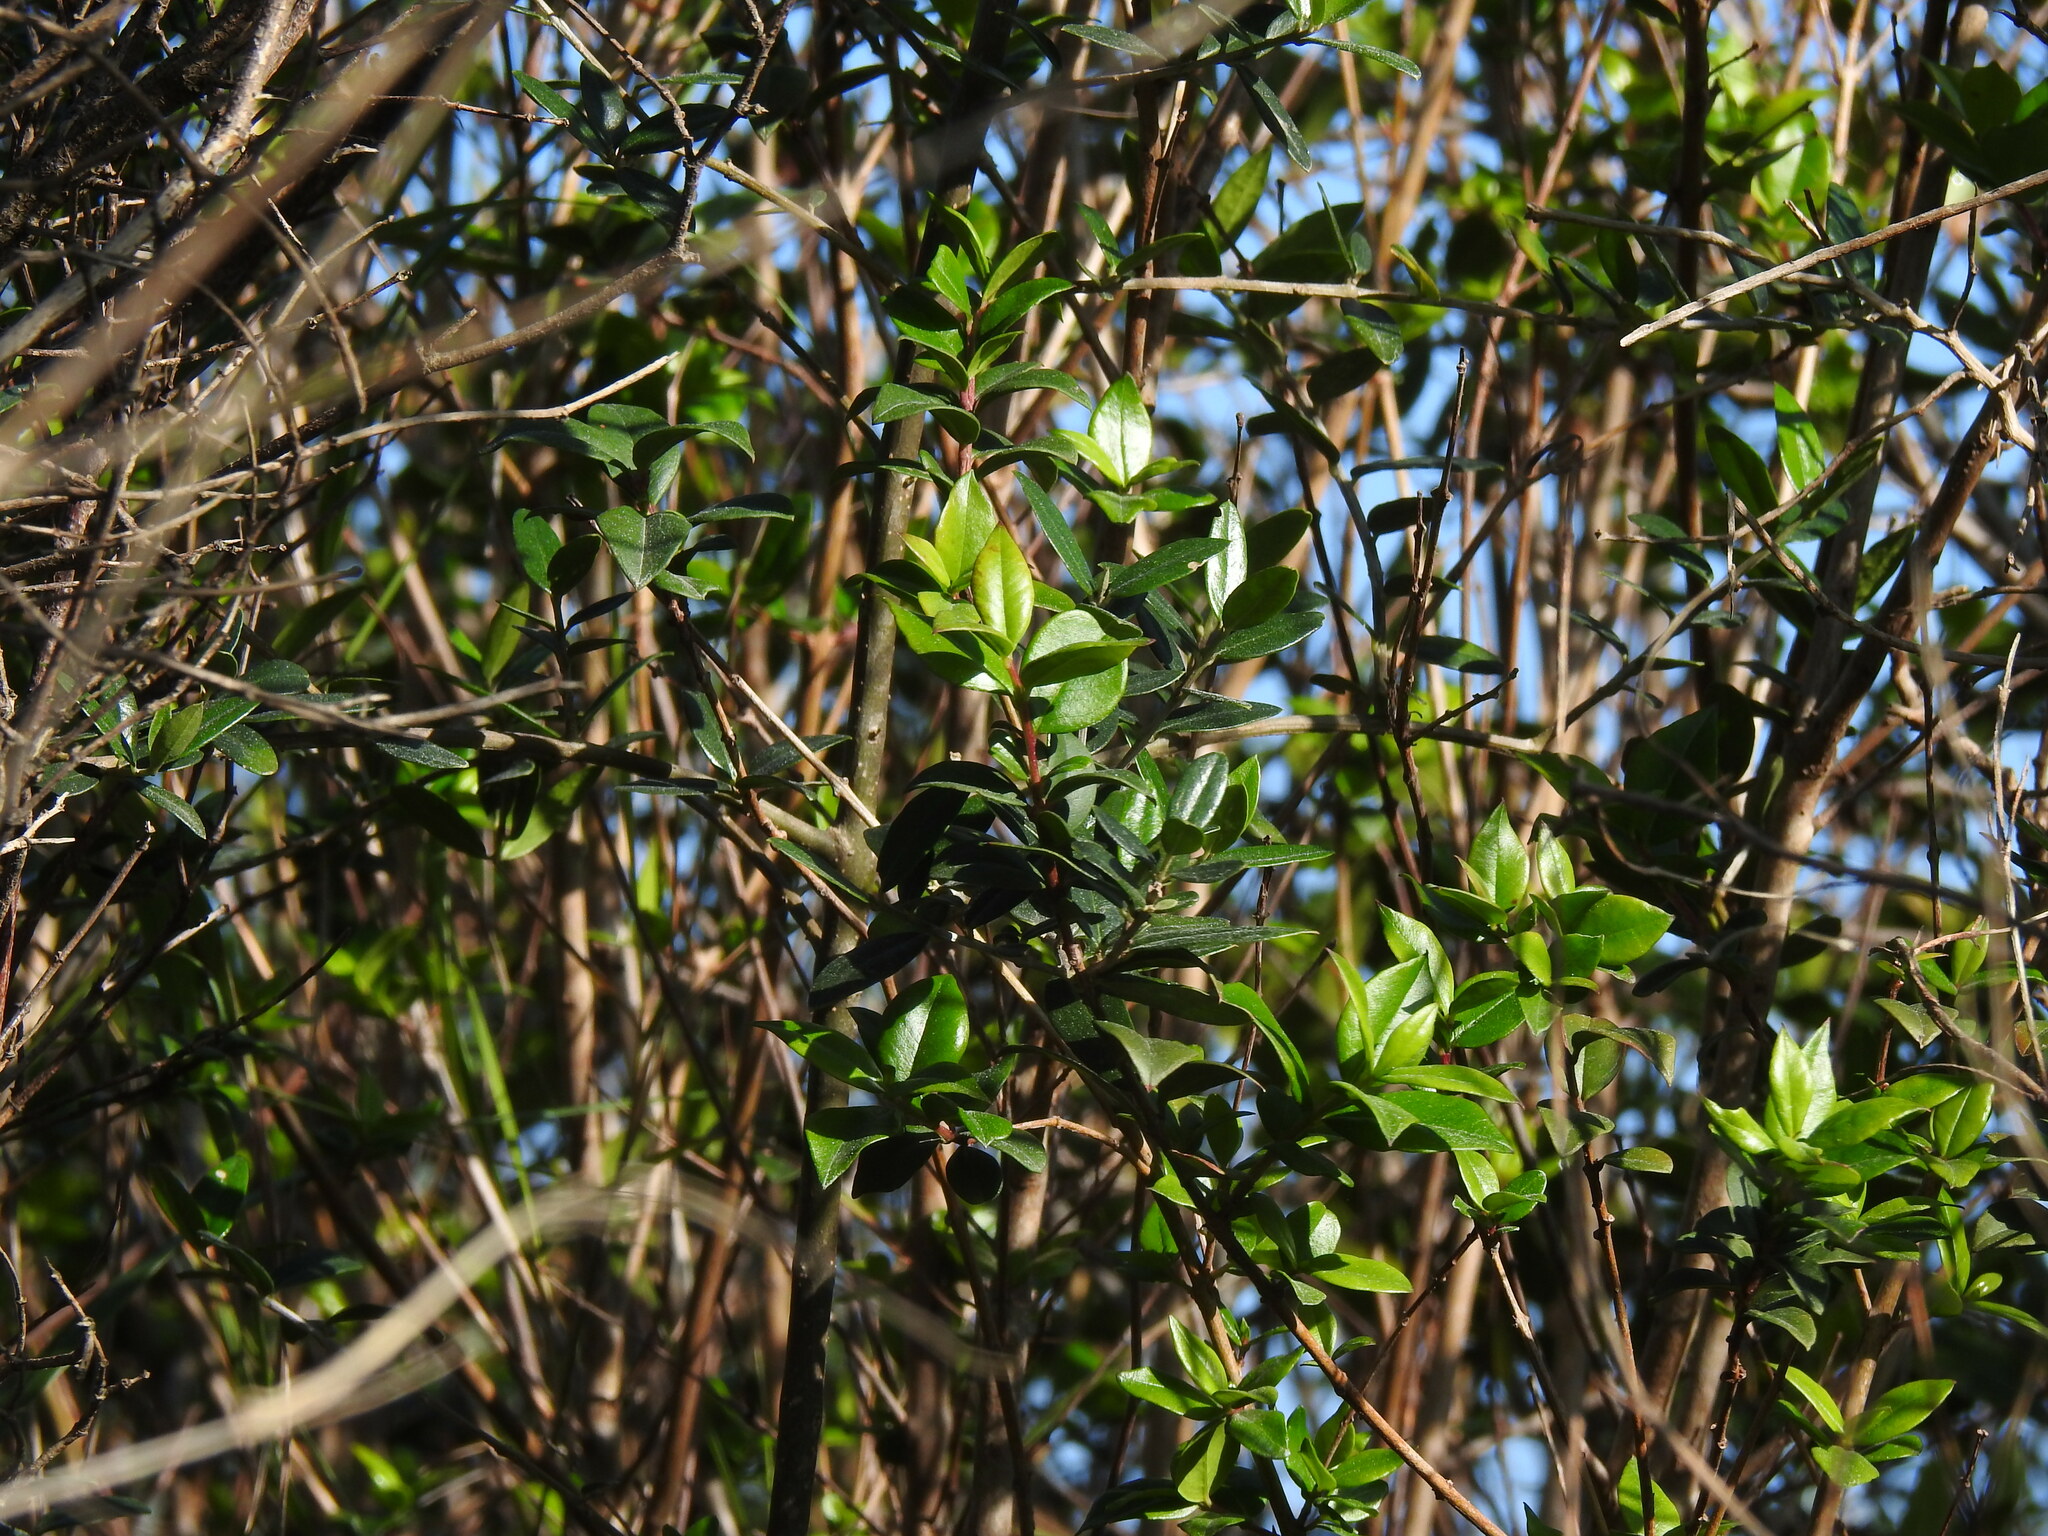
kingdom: Plantae
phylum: Tracheophyta
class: Magnoliopsida
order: Myrtales
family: Myrtaceae
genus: Myrtus
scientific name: Myrtus communis
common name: Myrtle
